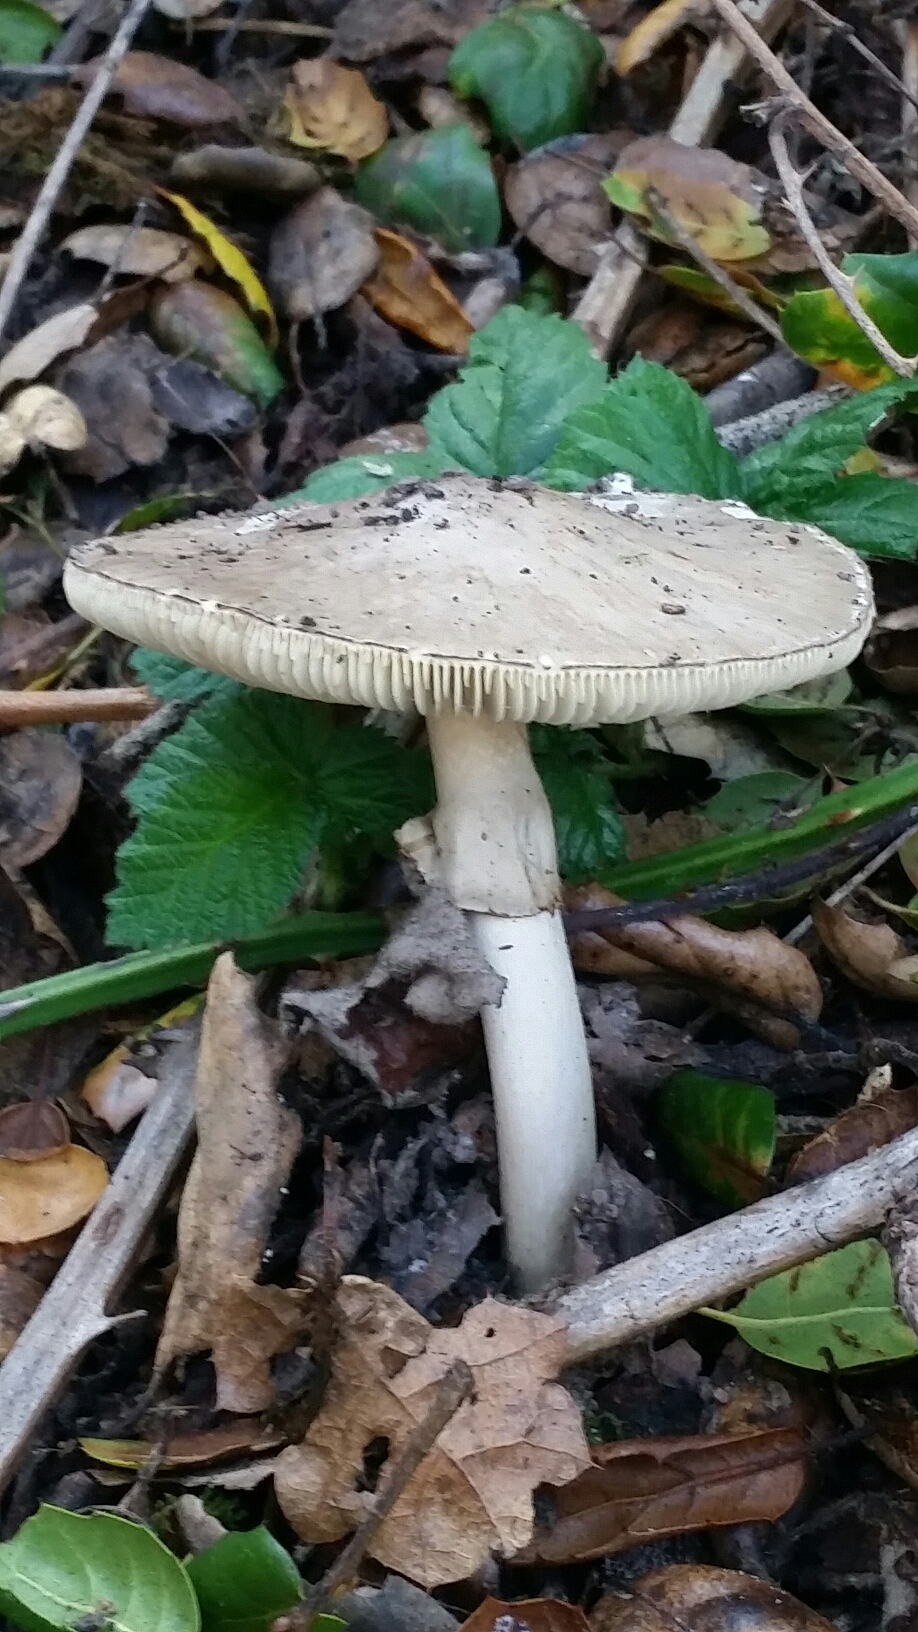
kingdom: Fungi
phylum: Basidiomycota
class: Agaricomycetes
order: Agaricales
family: Amanitaceae
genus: Amanita
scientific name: Amanita phalloides
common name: Death cap
